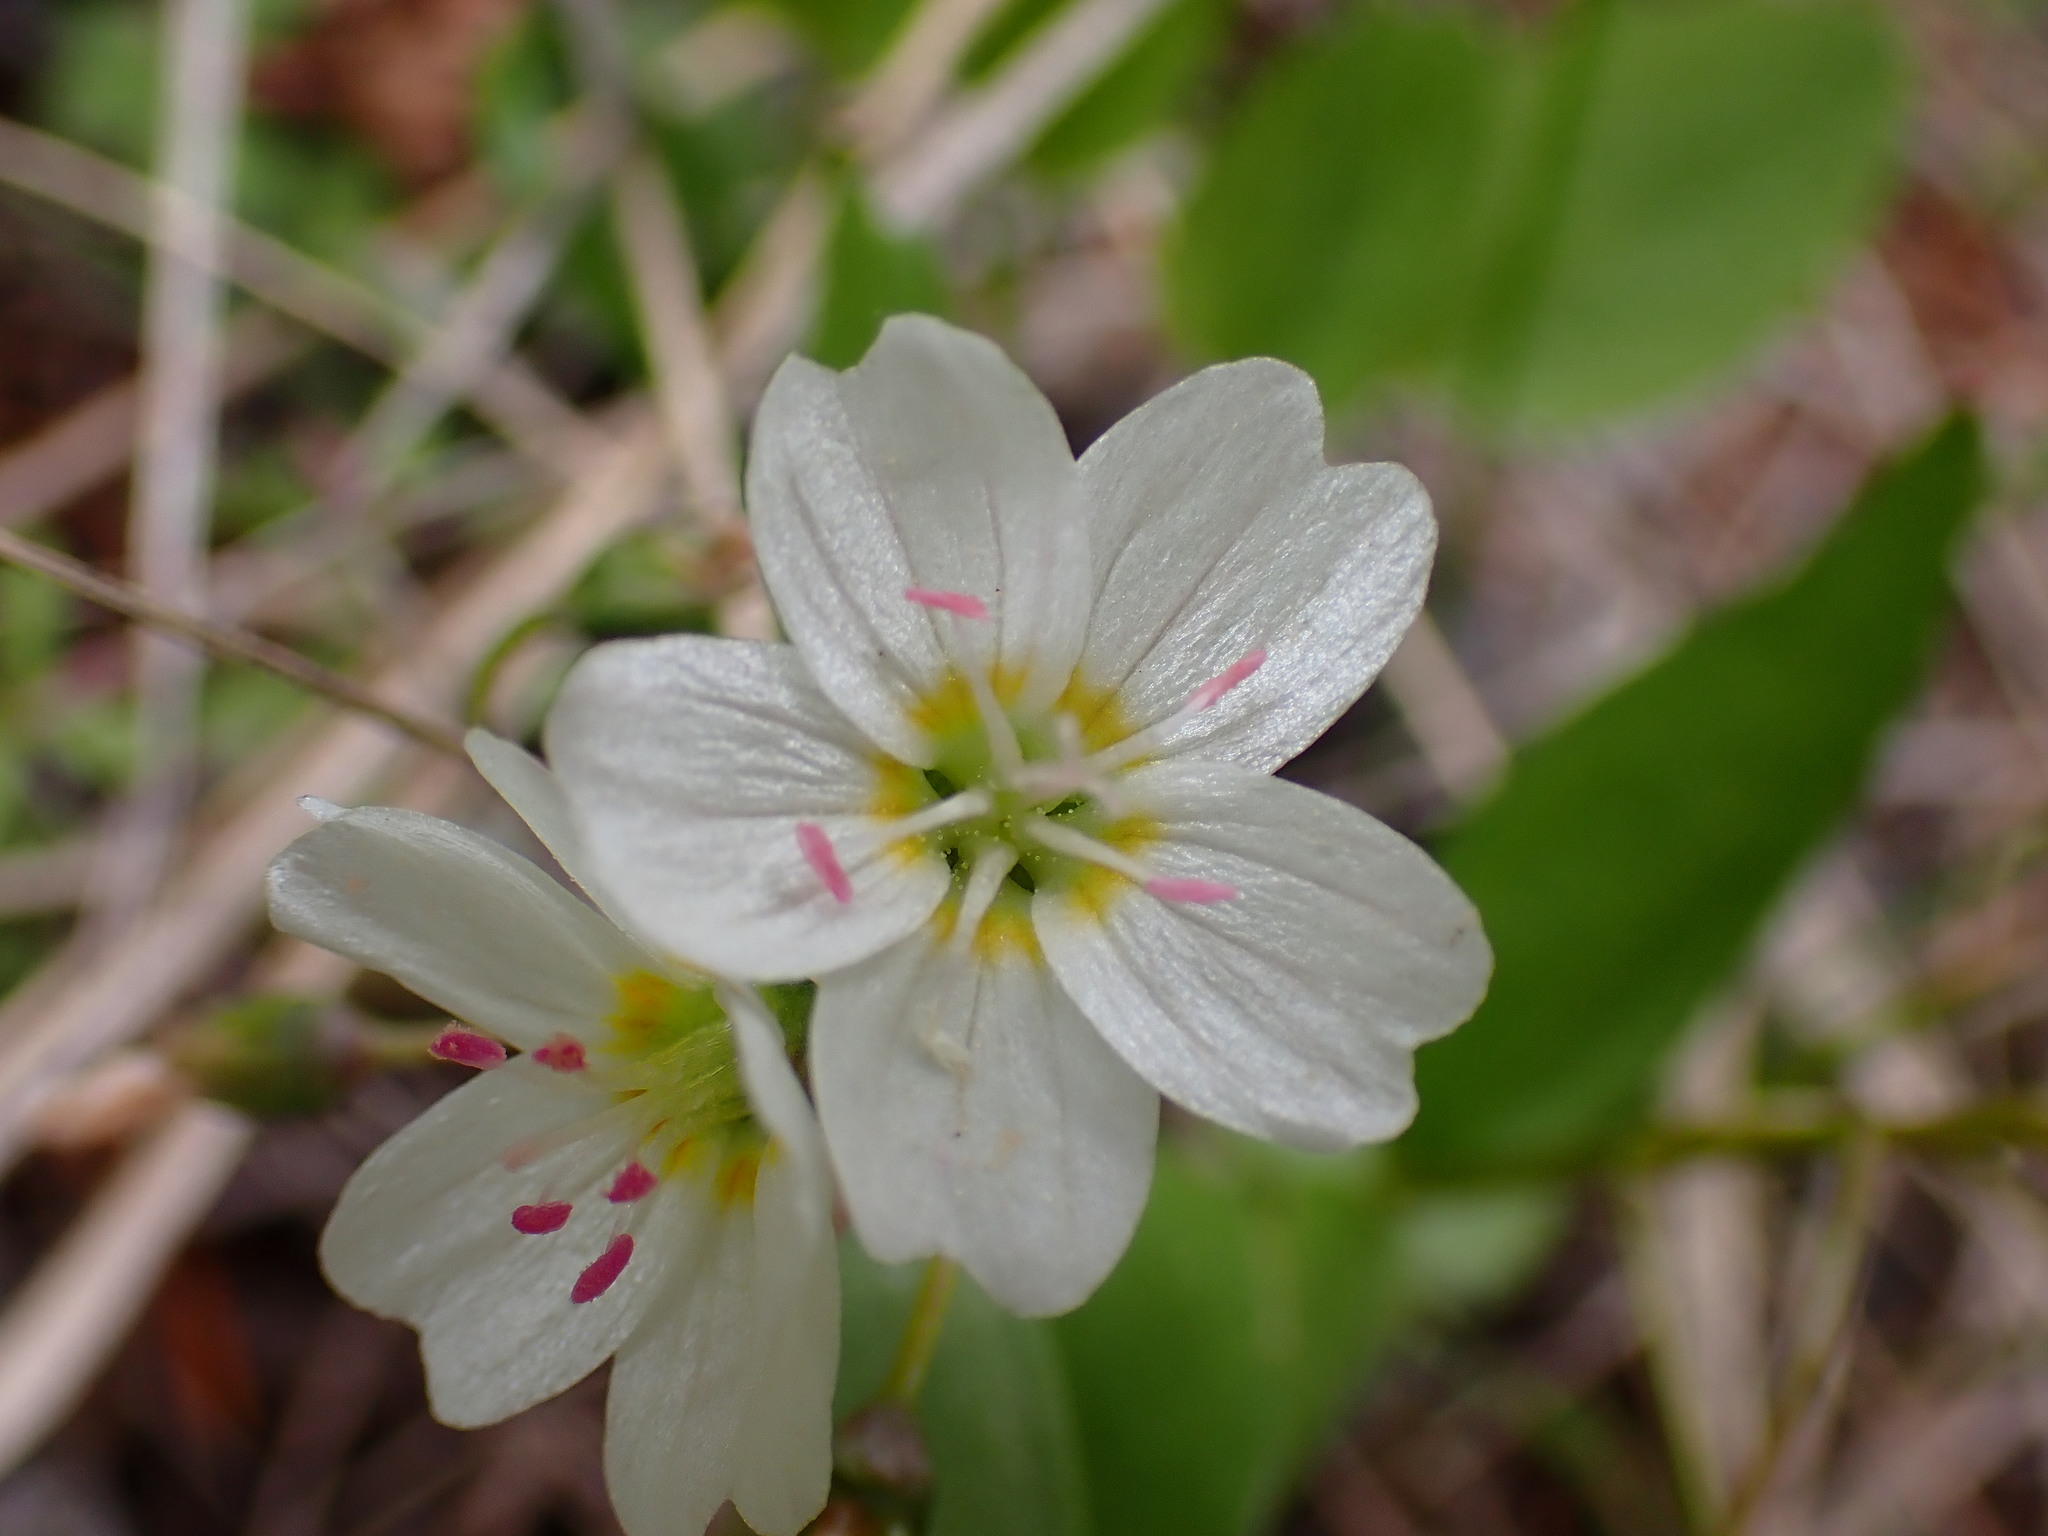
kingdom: Plantae
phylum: Tracheophyta
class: Magnoliopsida
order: Caryophyllales
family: Montiaceae
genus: Claytonia
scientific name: Claytonia lanceolata
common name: Western spring-beauty
